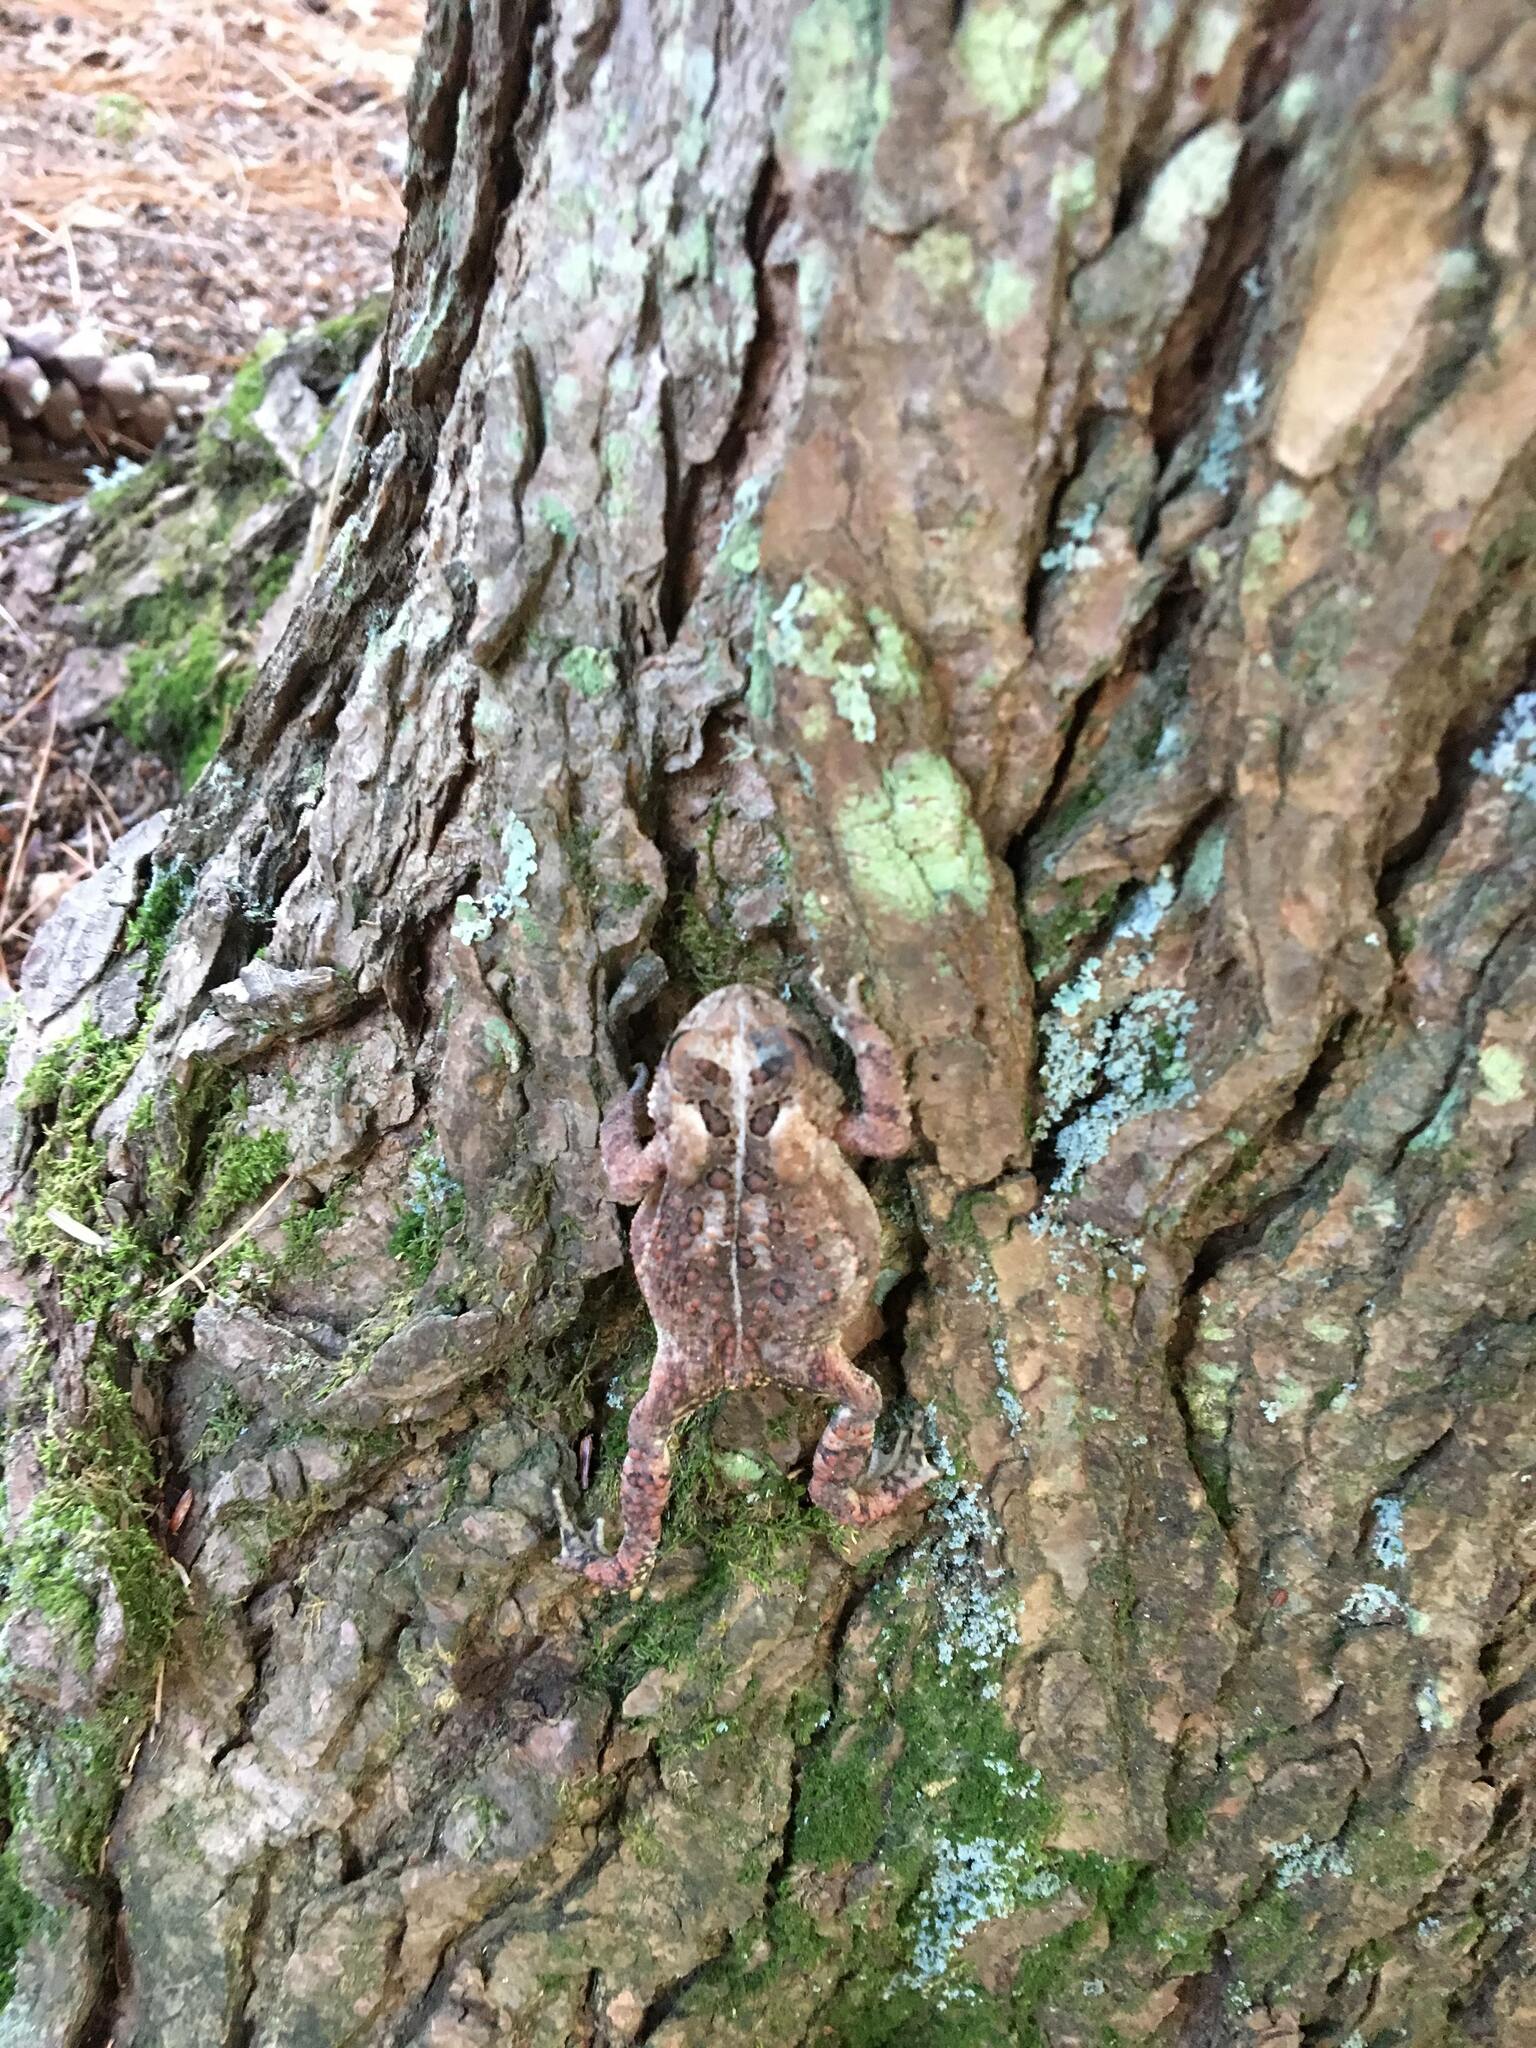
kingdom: Animalia
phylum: Chordata
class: Amphibia
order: Anura
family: Bufonidae
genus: Anaxyrus
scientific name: Anaxyrus americanus
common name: American toad
